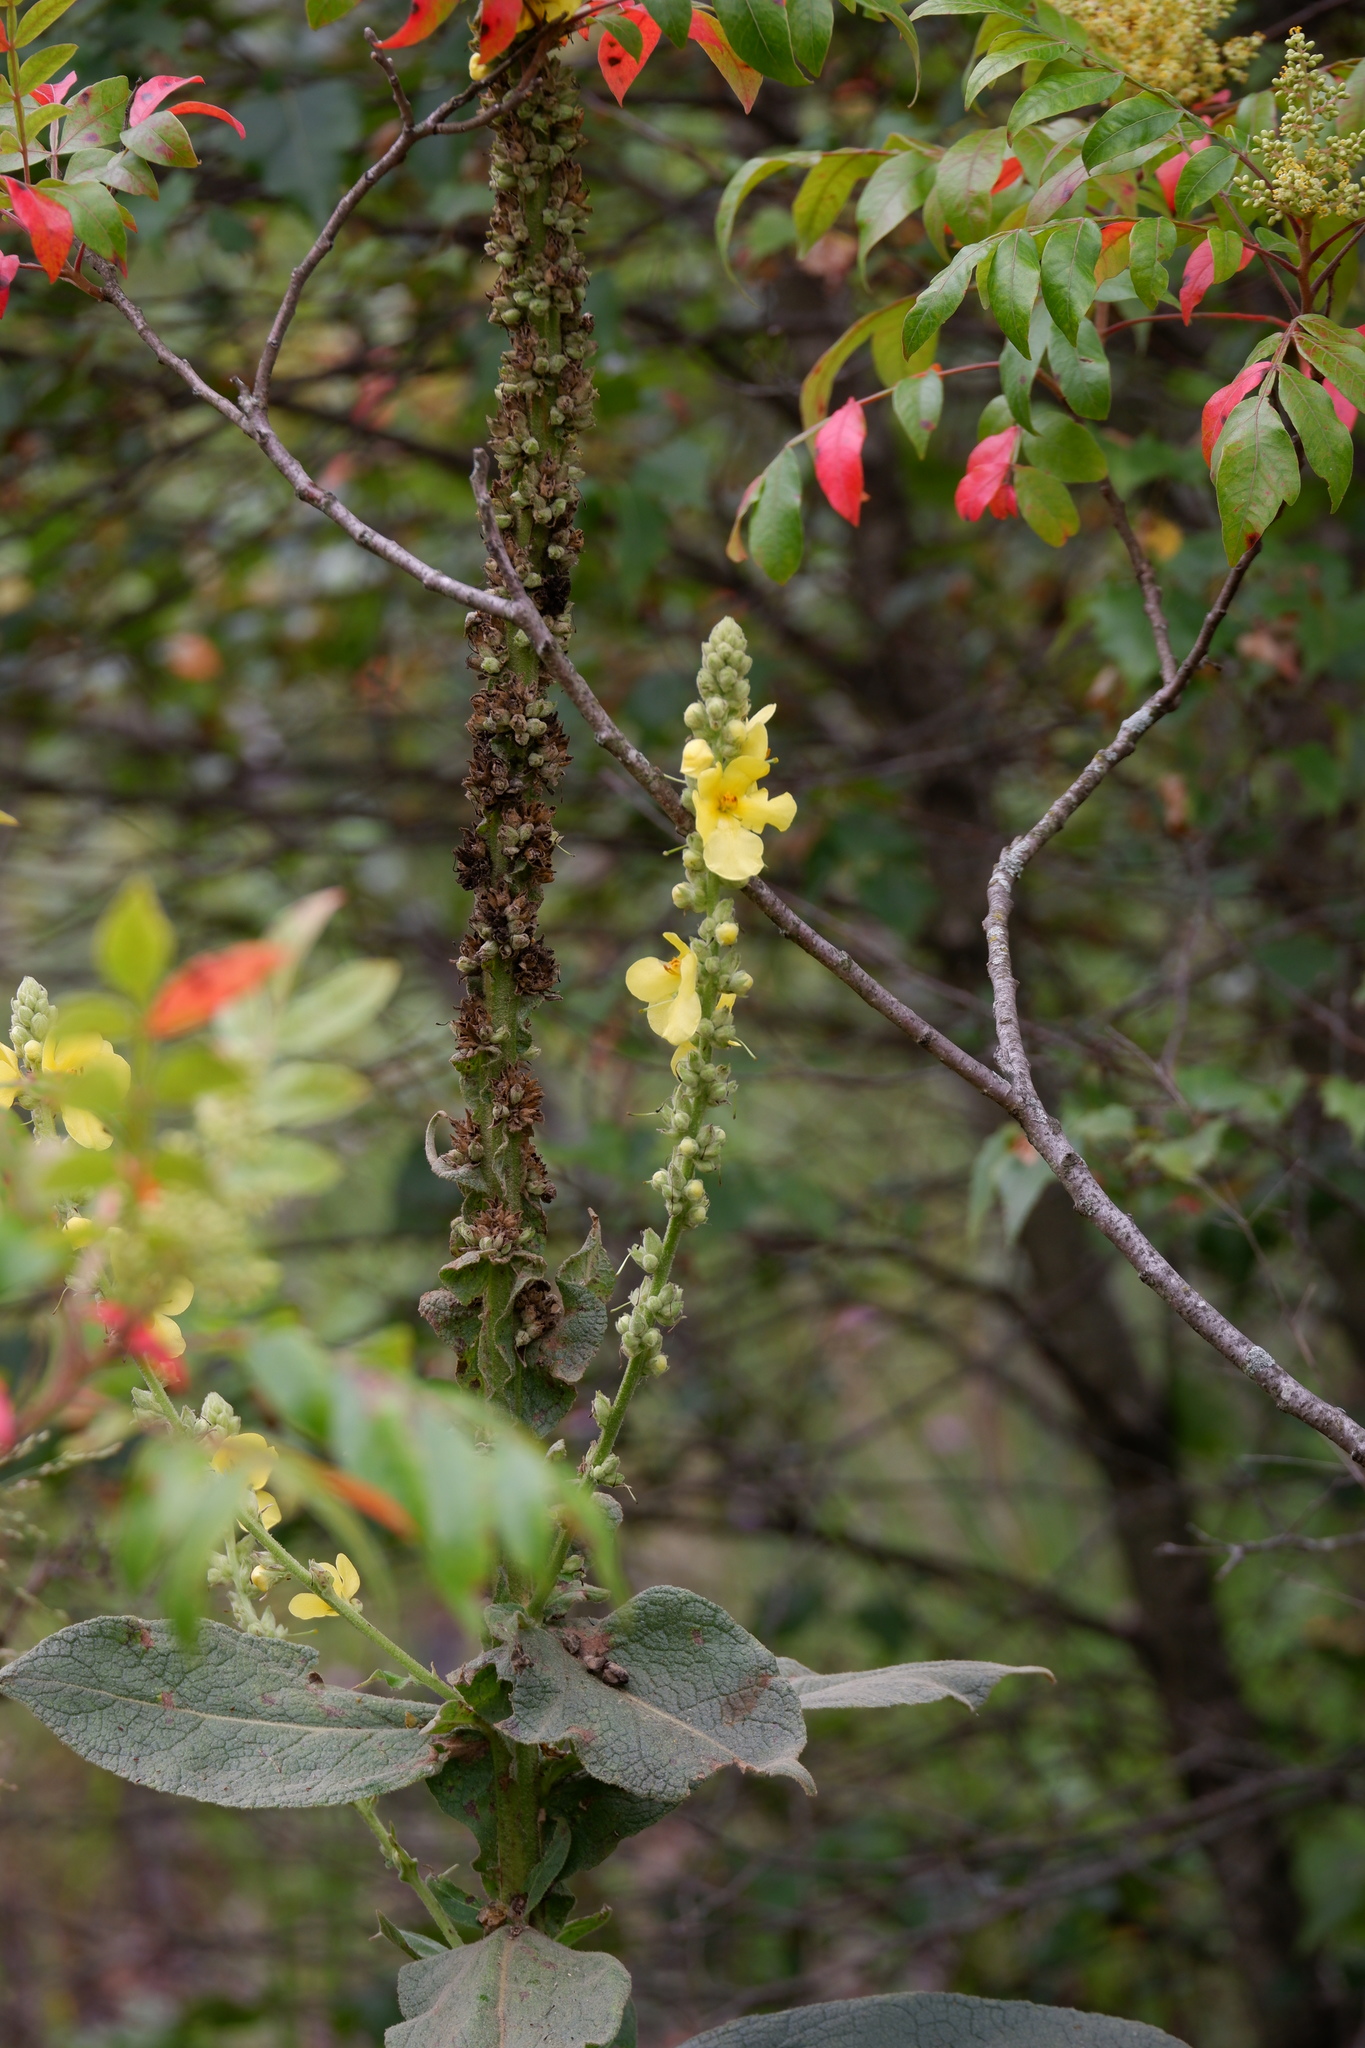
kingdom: Plantae
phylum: Tracheophyta
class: Magnoliopsida
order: Lamiales
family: Scrophulariaceae
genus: Verbascum
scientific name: Verbascum densiflorum
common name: Dense-flowered mullein
